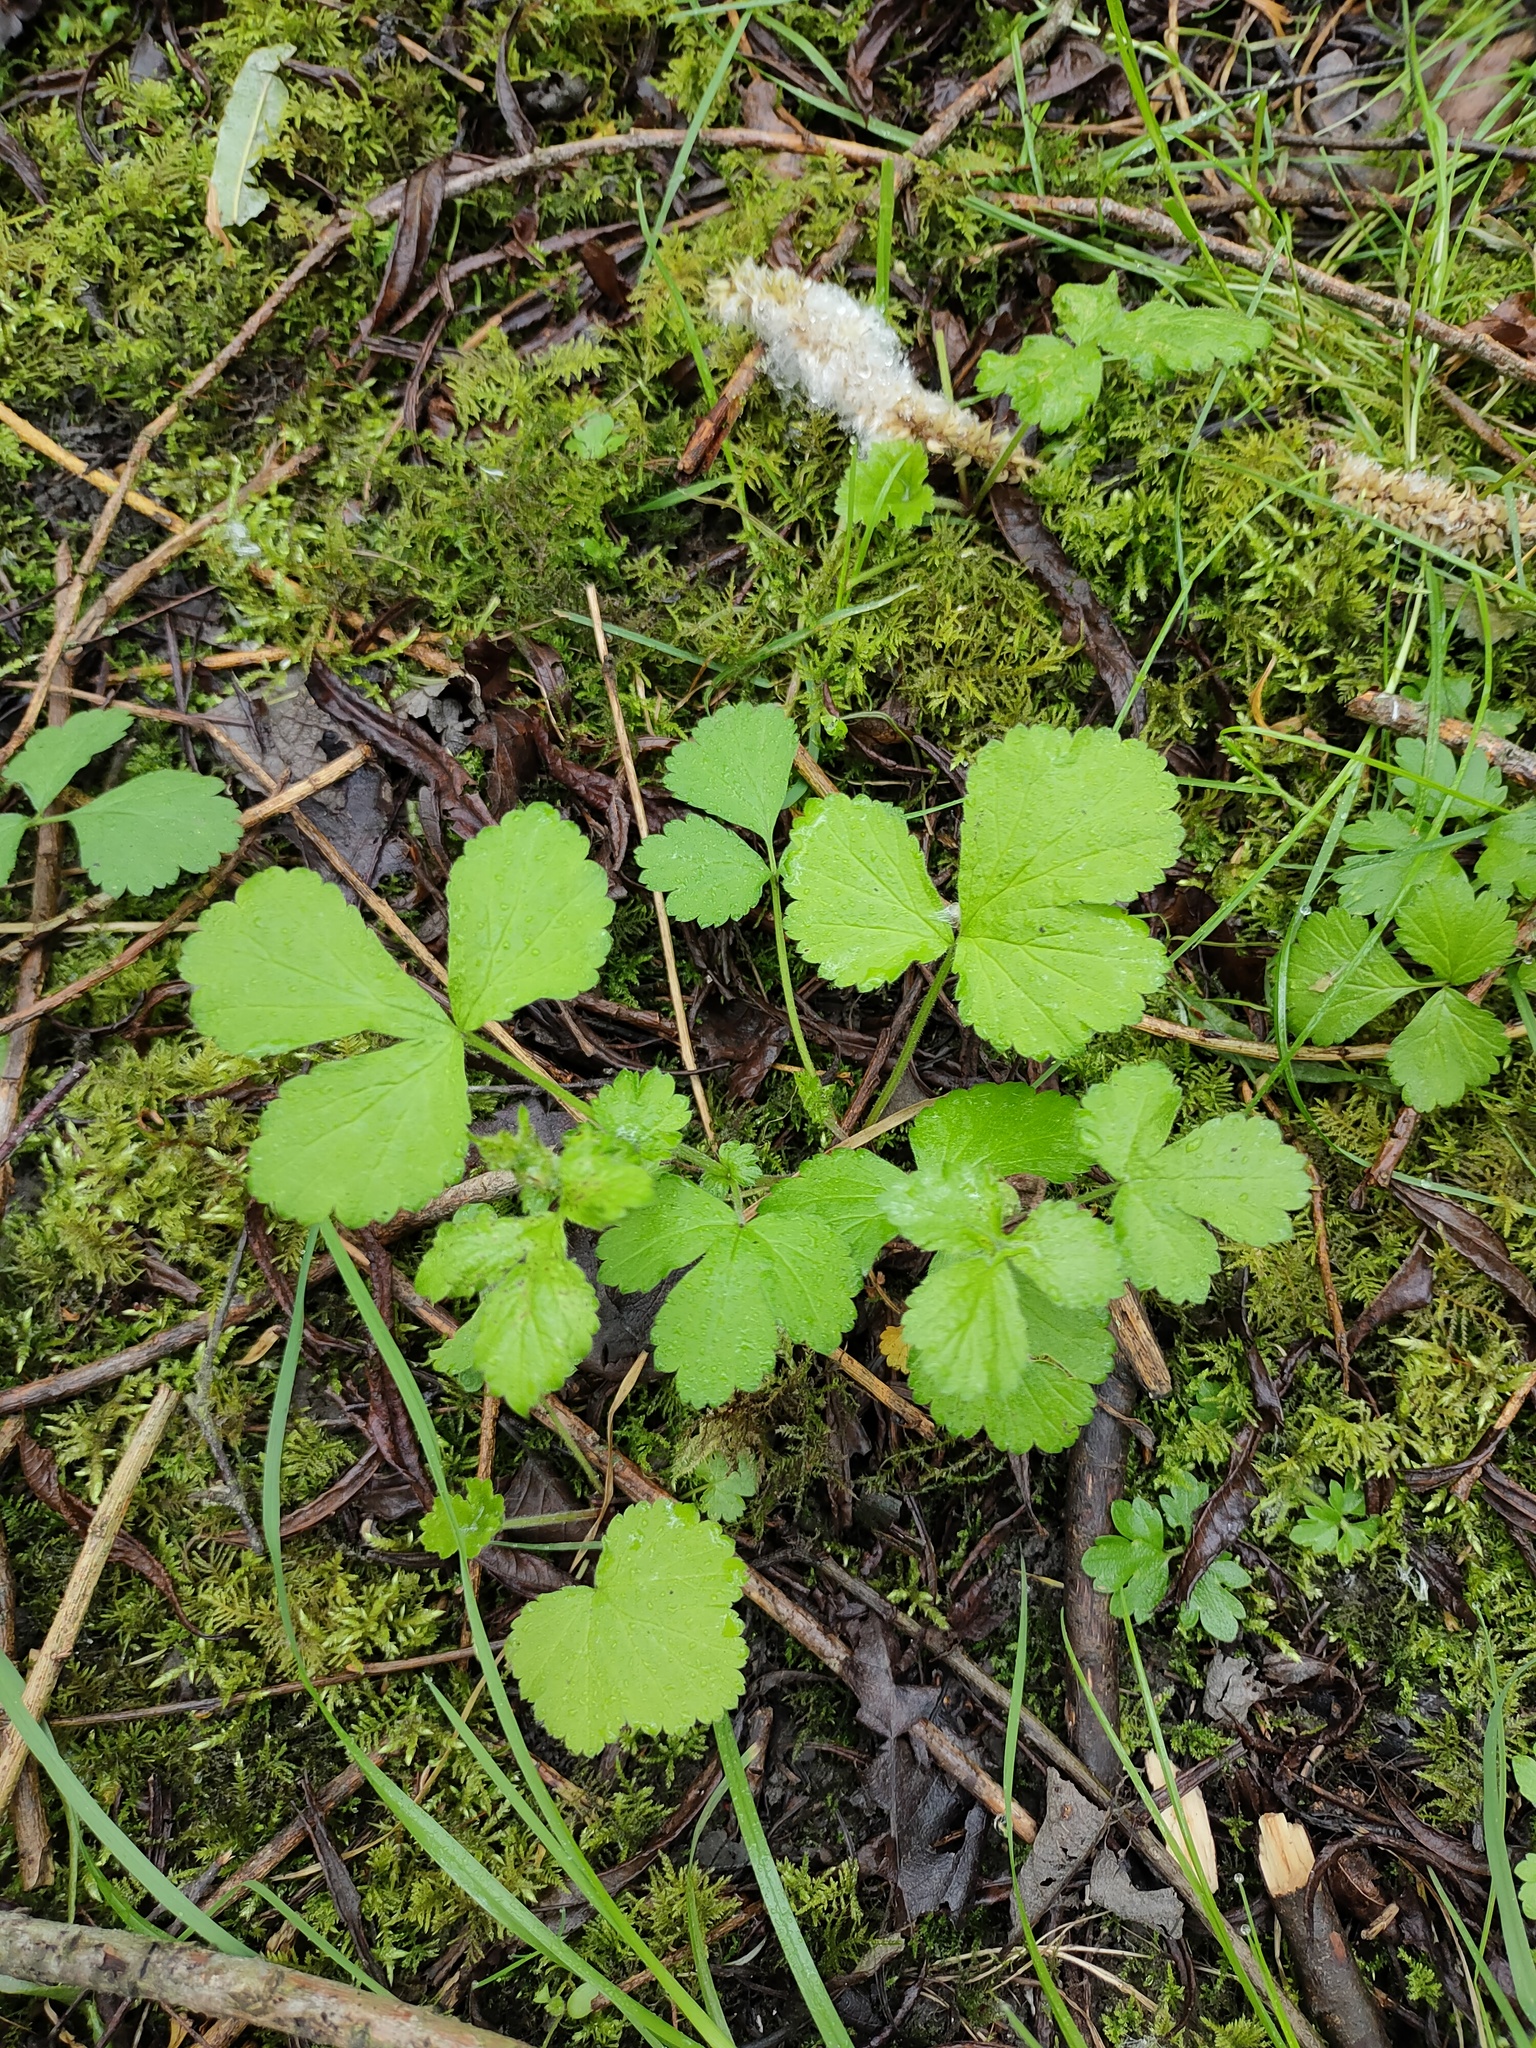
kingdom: Plantae
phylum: Tracheophyta
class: Magnoliopsida
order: Rosales
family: Rosaceae
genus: Geum
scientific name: Geum urbanum
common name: Wood avens
